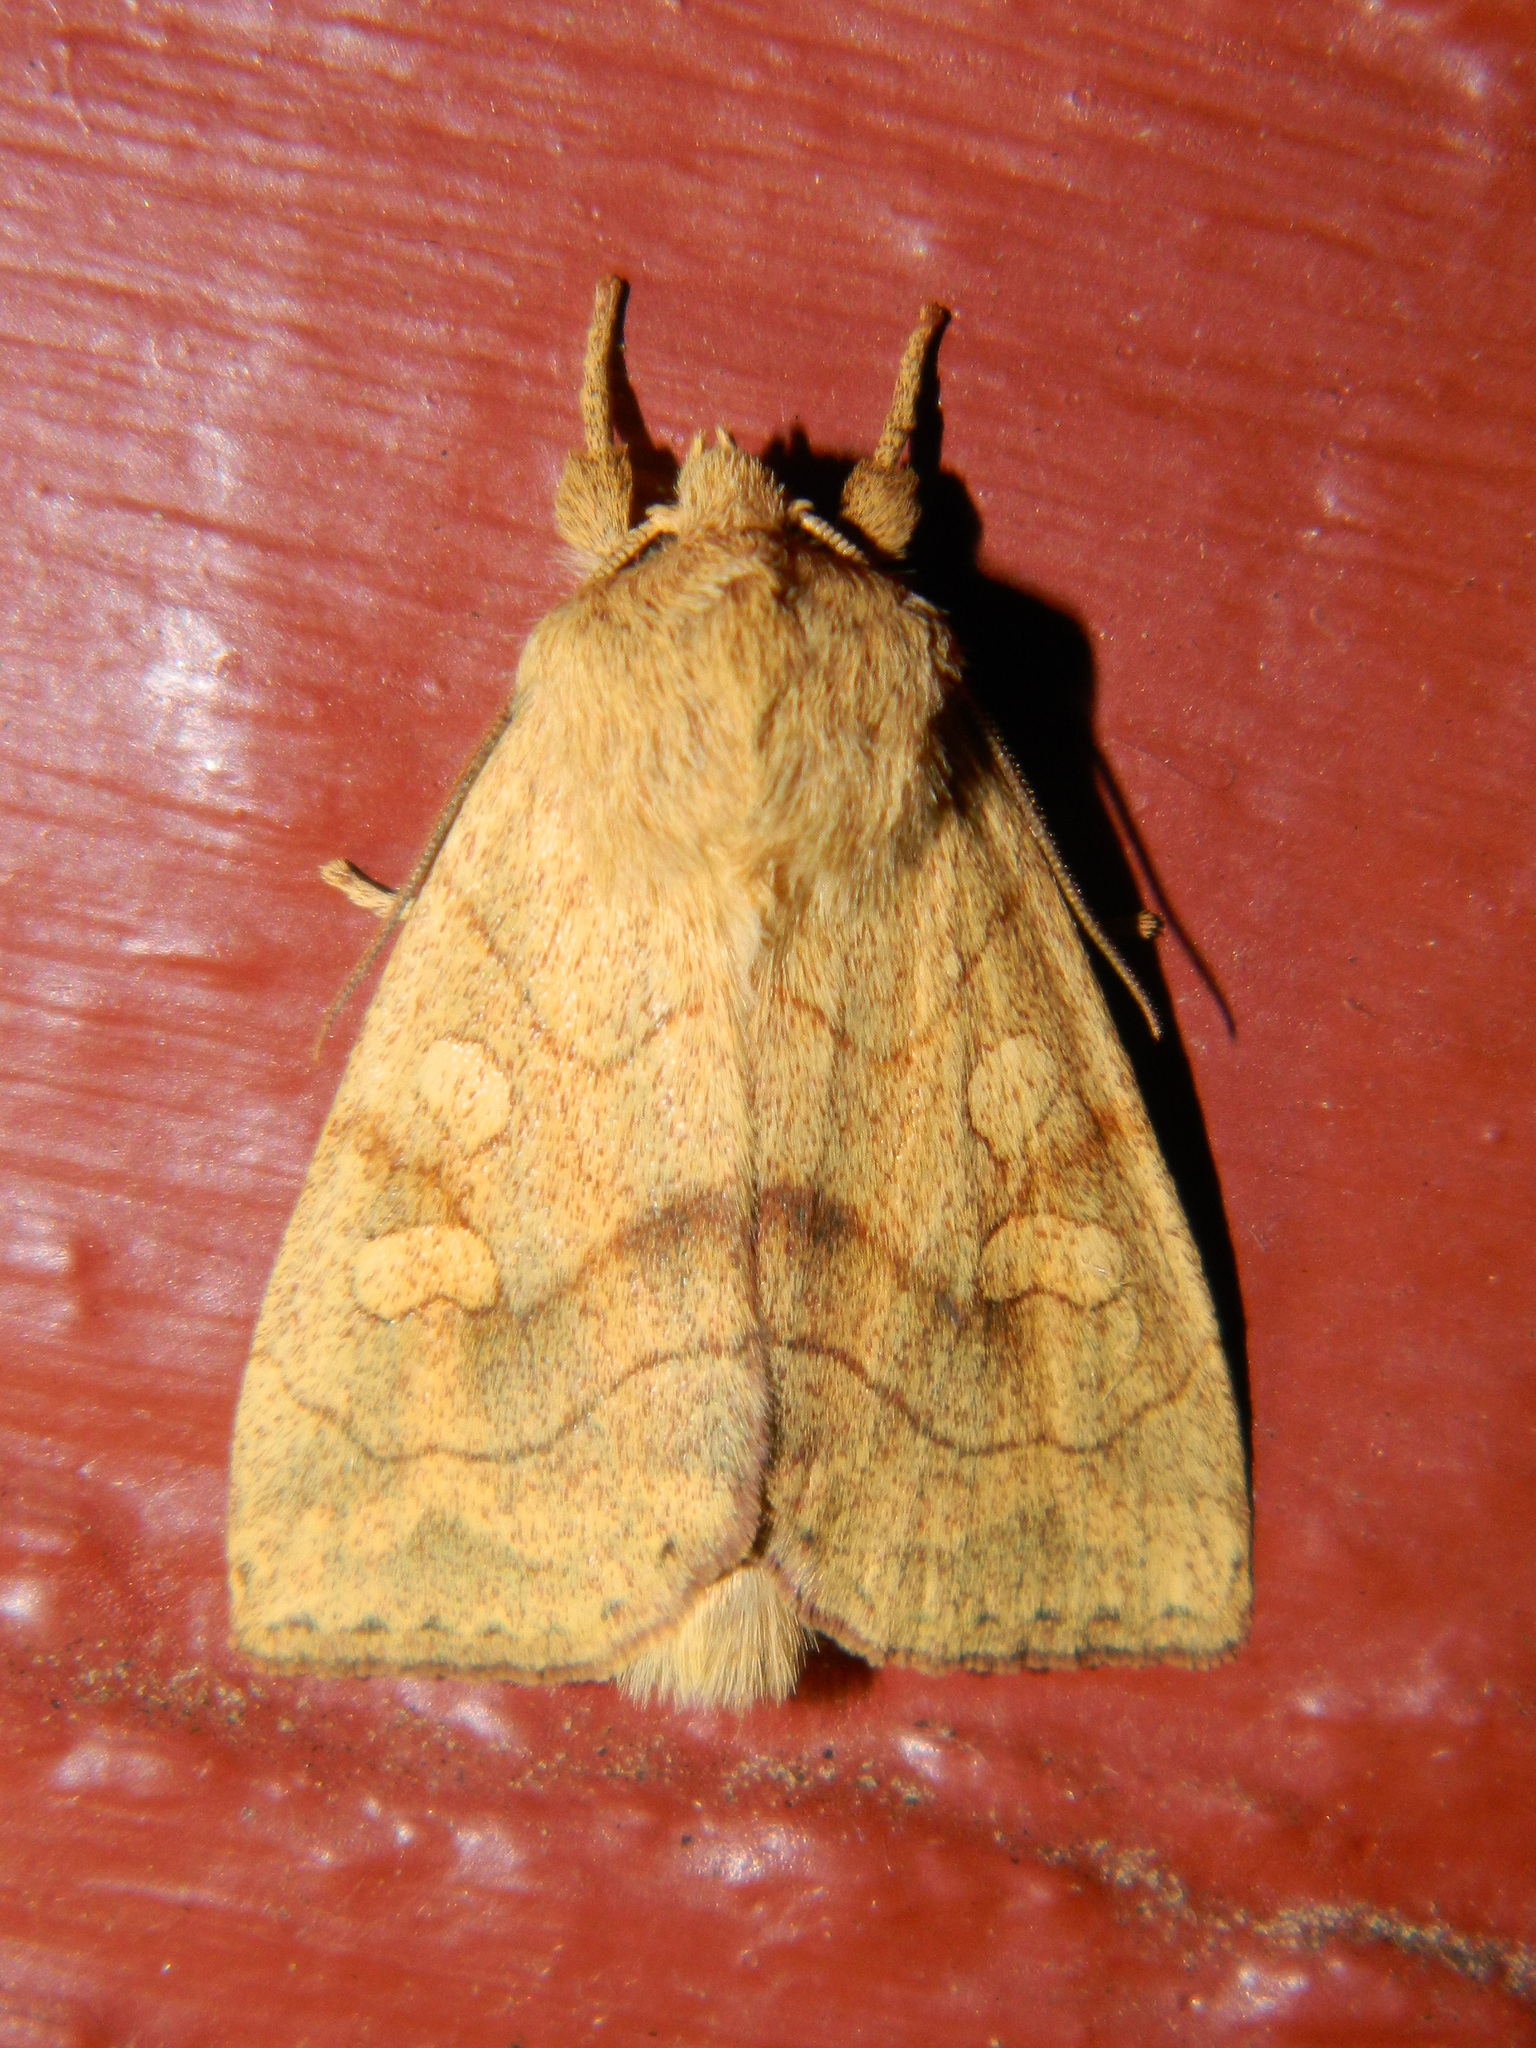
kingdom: Animalia
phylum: Arthropoda
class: Insecta
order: Lepidoptera
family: Noctuidae
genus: Enargia
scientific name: Enargia decolor
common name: Aspen twoleaf tier moth
